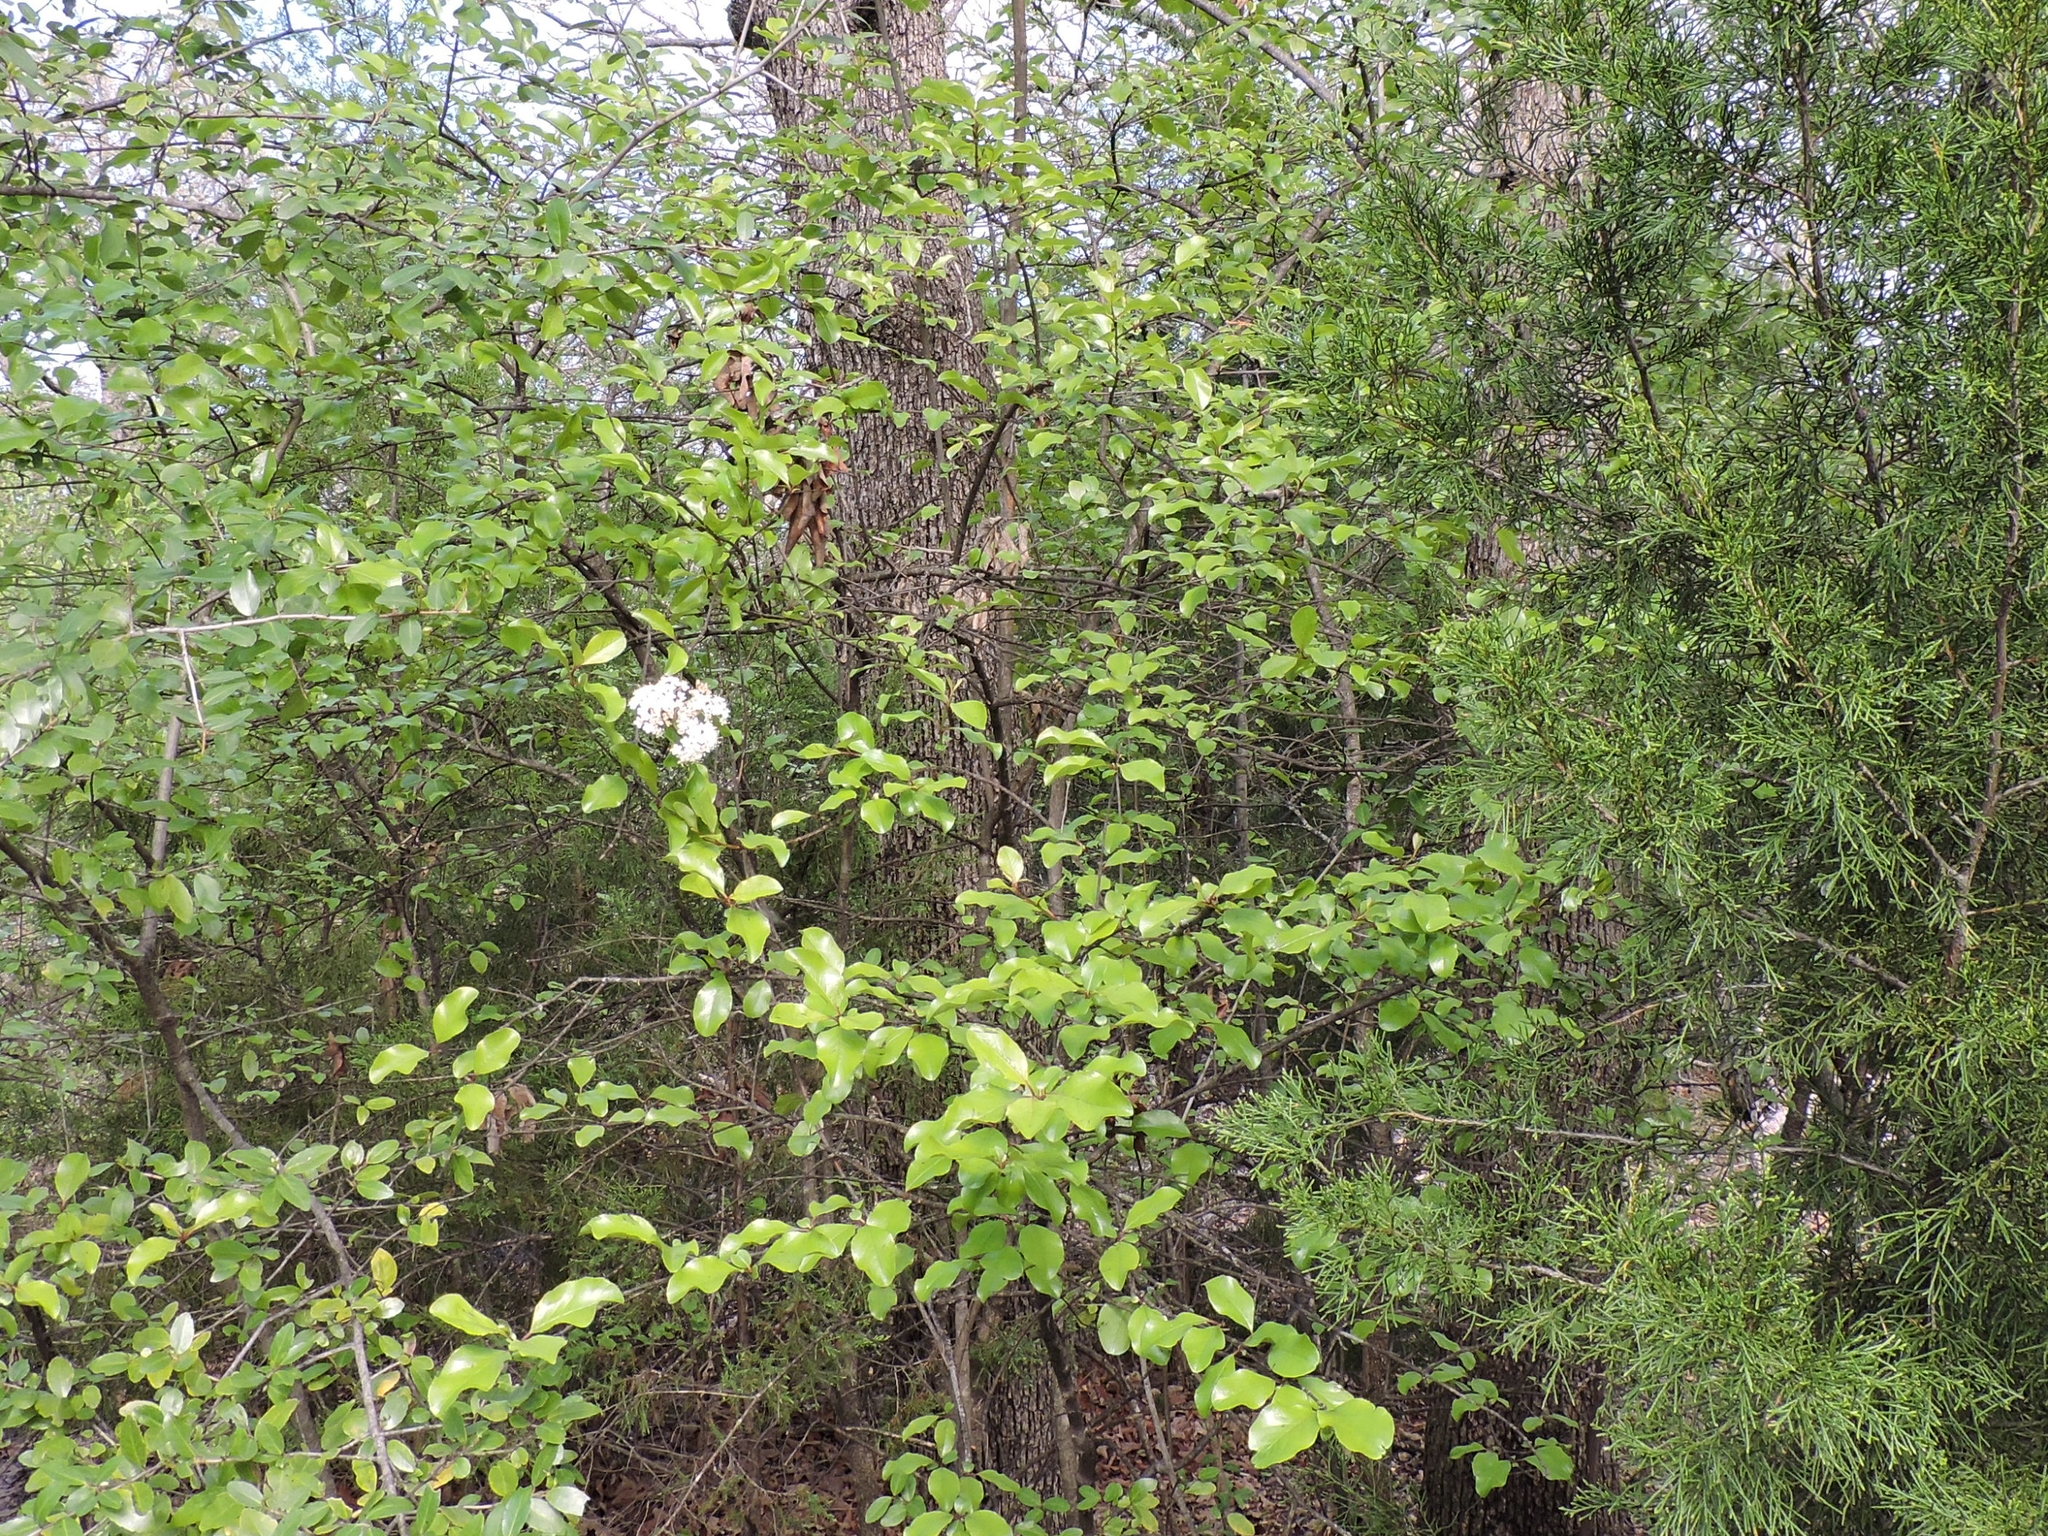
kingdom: Plantae
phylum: Tracheophyta
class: Magnoliopsida
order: Dipsacales
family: Viburnaceae
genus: Viburnum
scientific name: Viburnum rufidulum
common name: Blue haw
